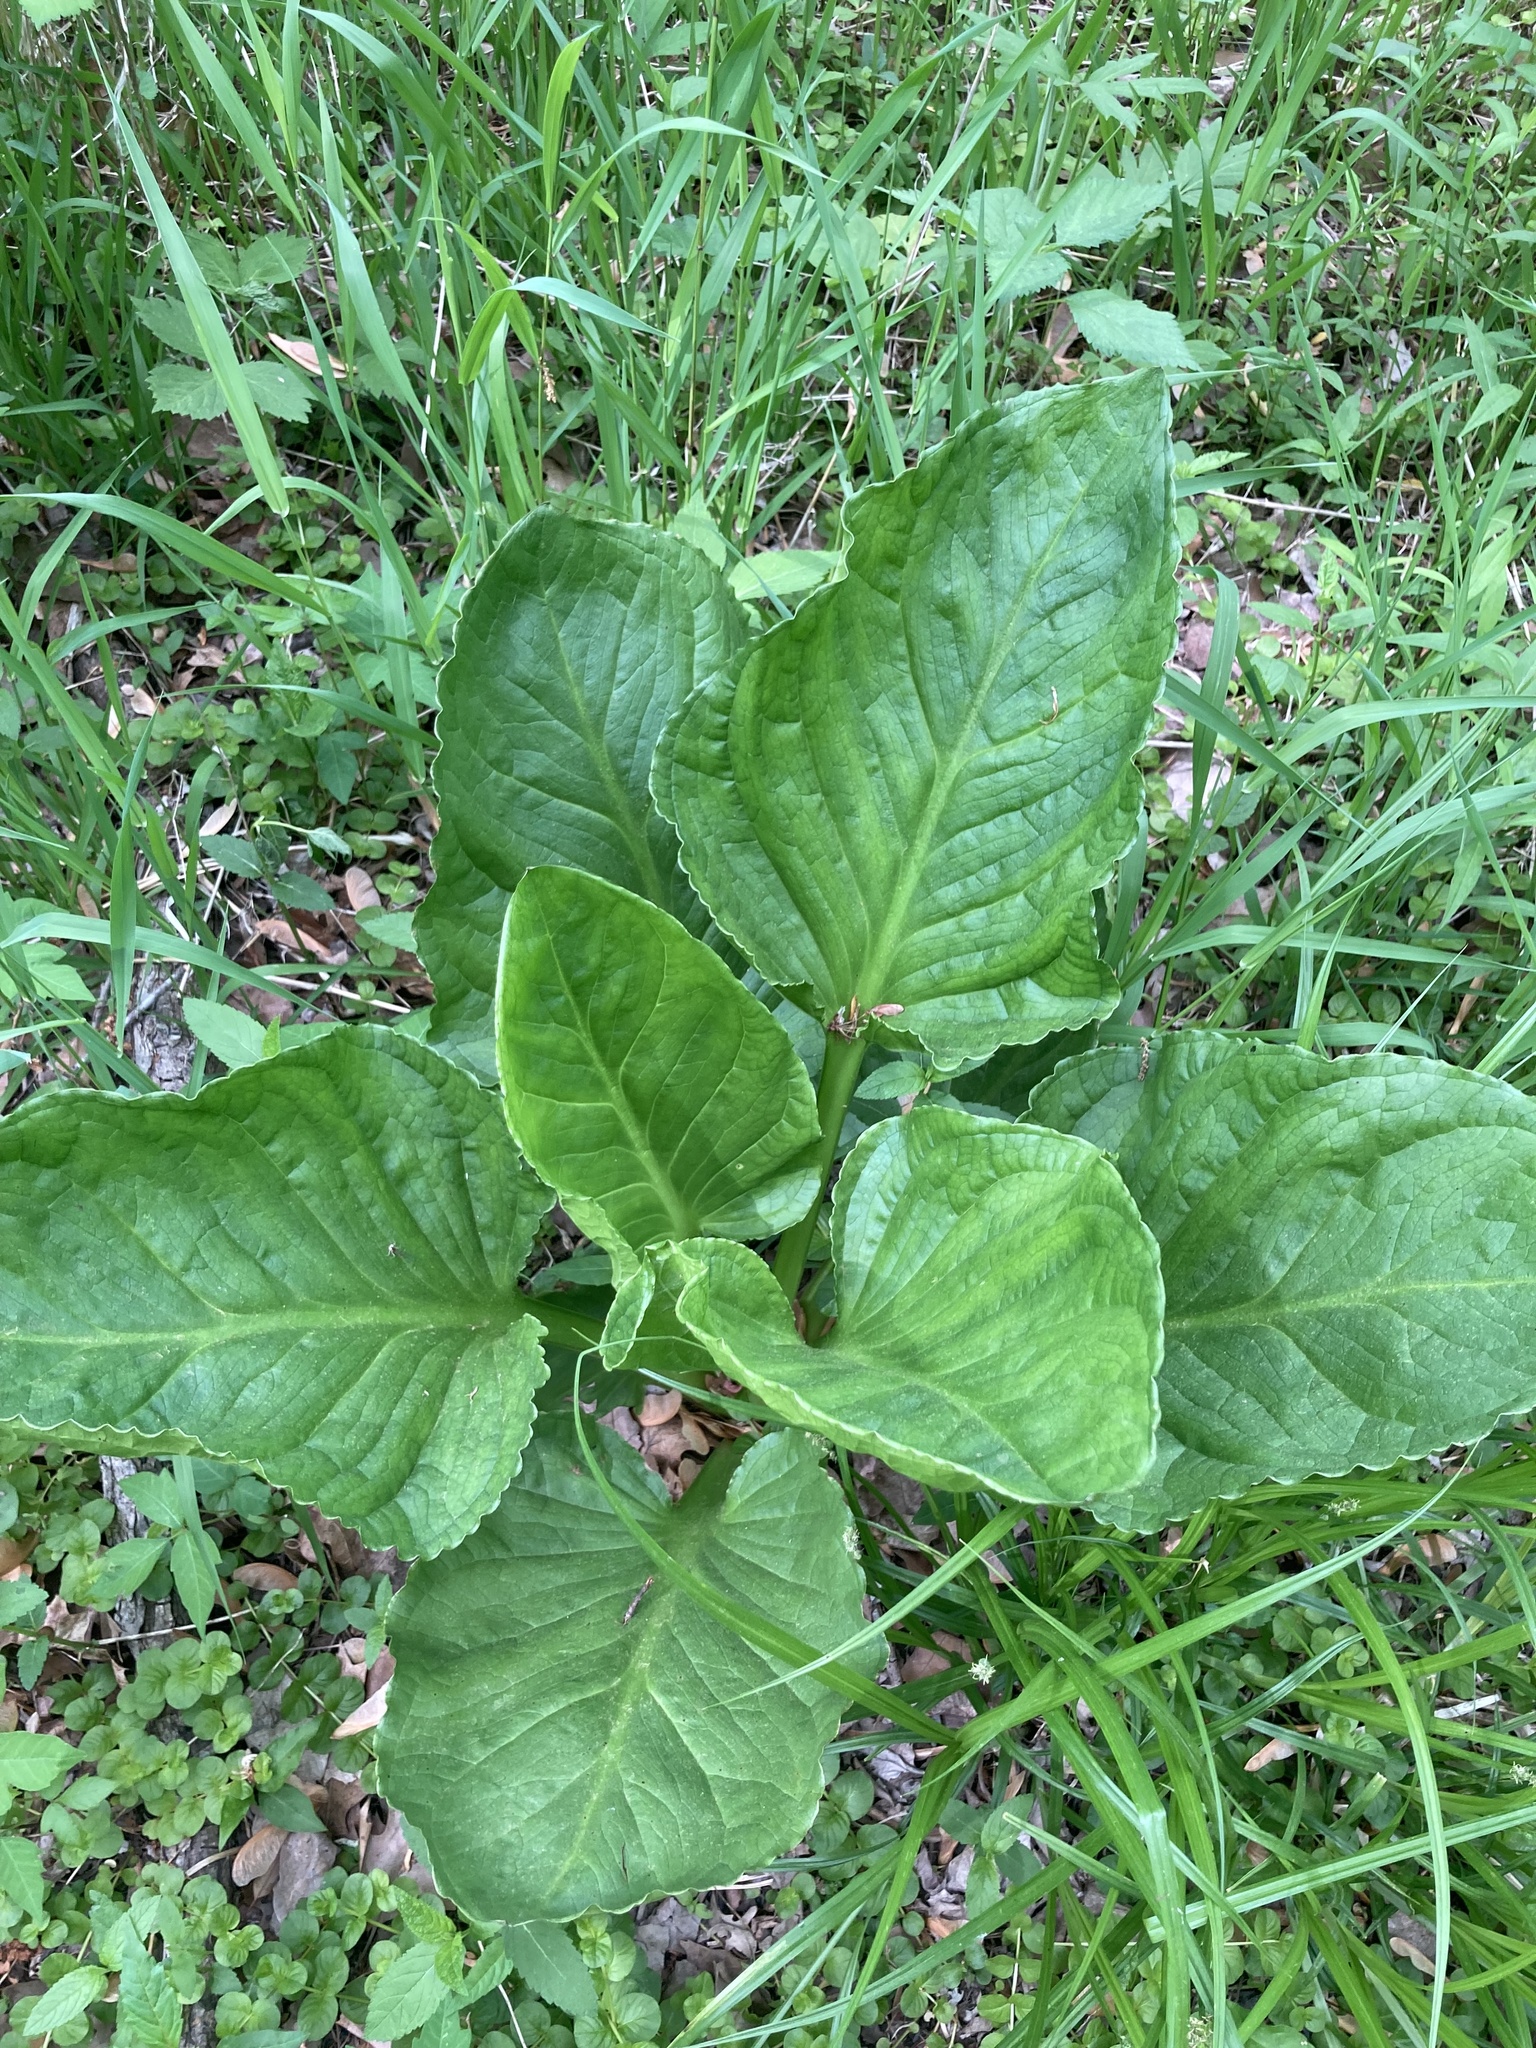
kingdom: Plantae
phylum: Tracheophyta
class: Liliopsida
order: Alismatales
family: Araceae
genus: Symplocarpus
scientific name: Symplocarpus foetidus
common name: Eastern skunk cabbage
